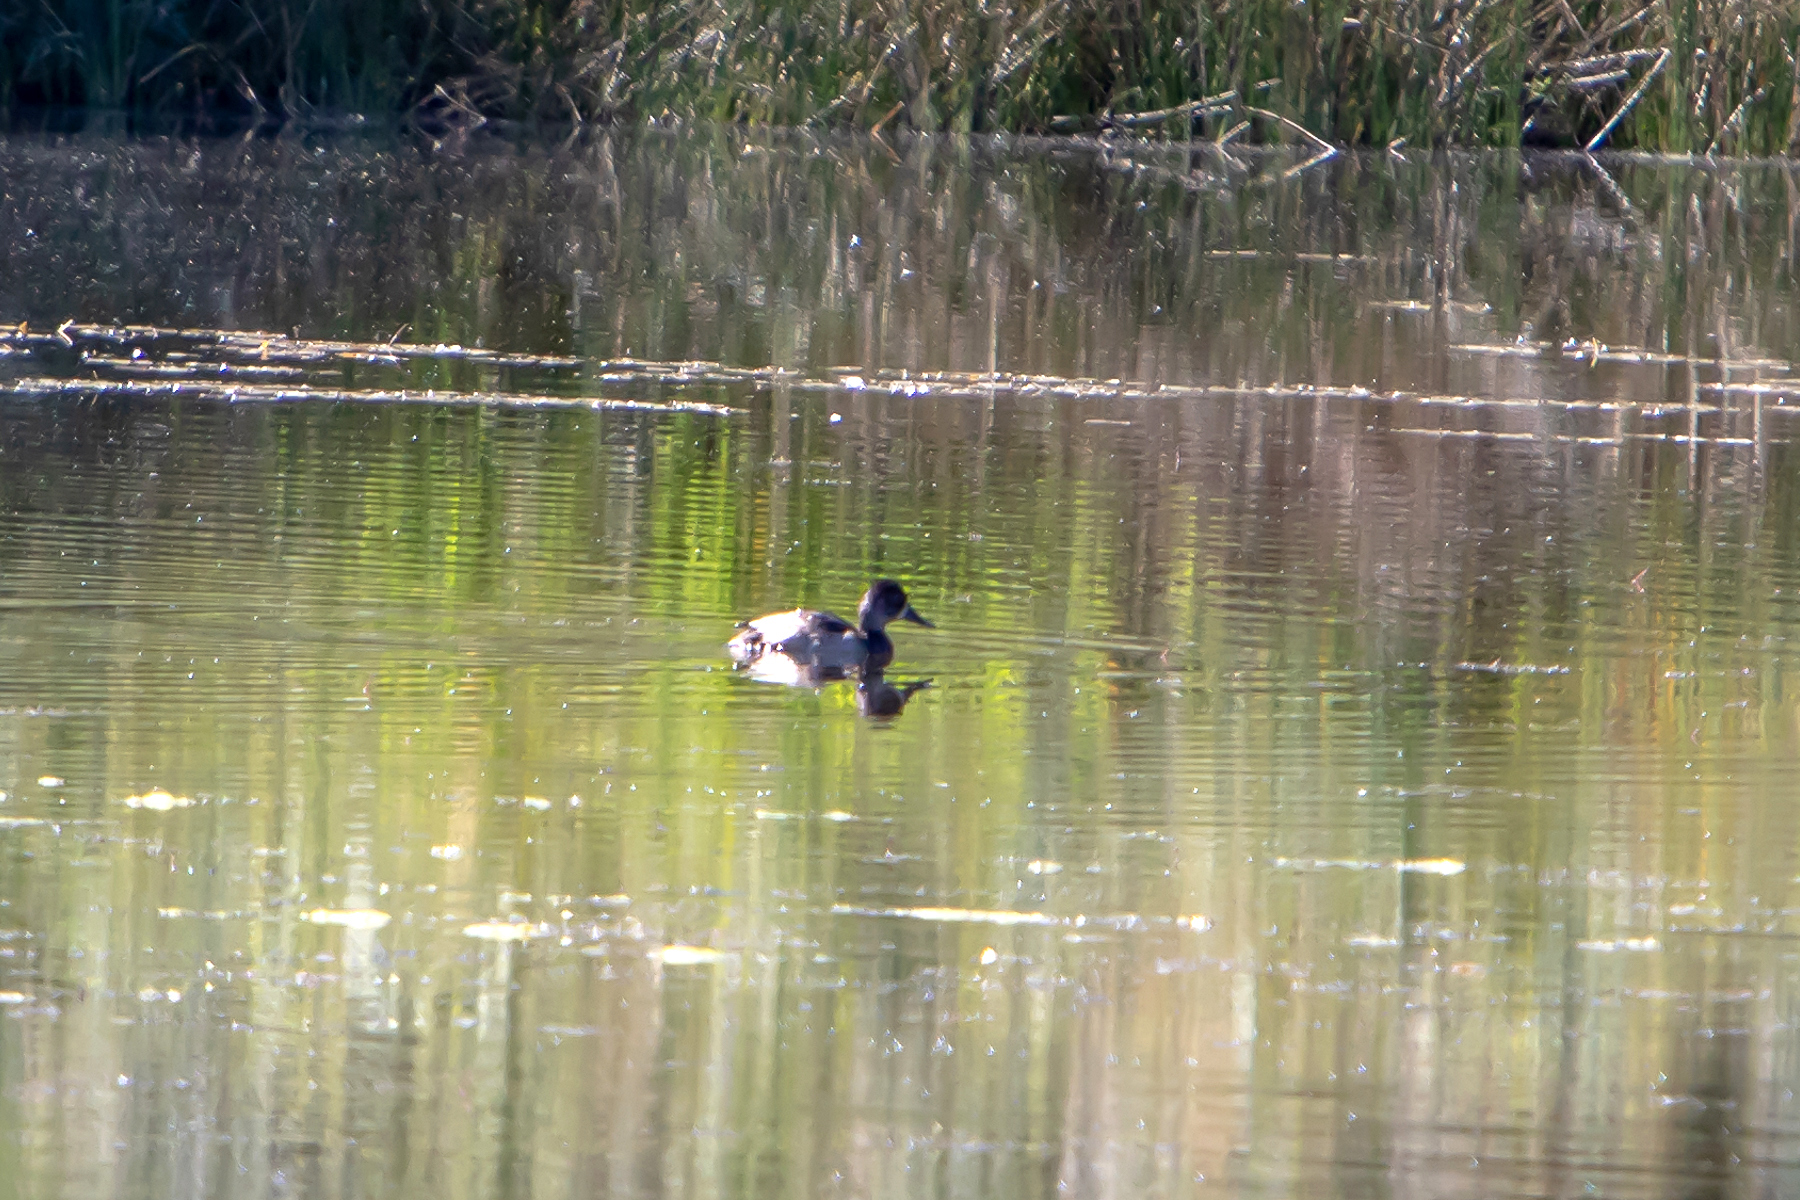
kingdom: Animalia
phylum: Chordata
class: Aves
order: Anseriformes
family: Anatidae
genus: Aythya
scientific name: Aythya americana
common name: Redhead
